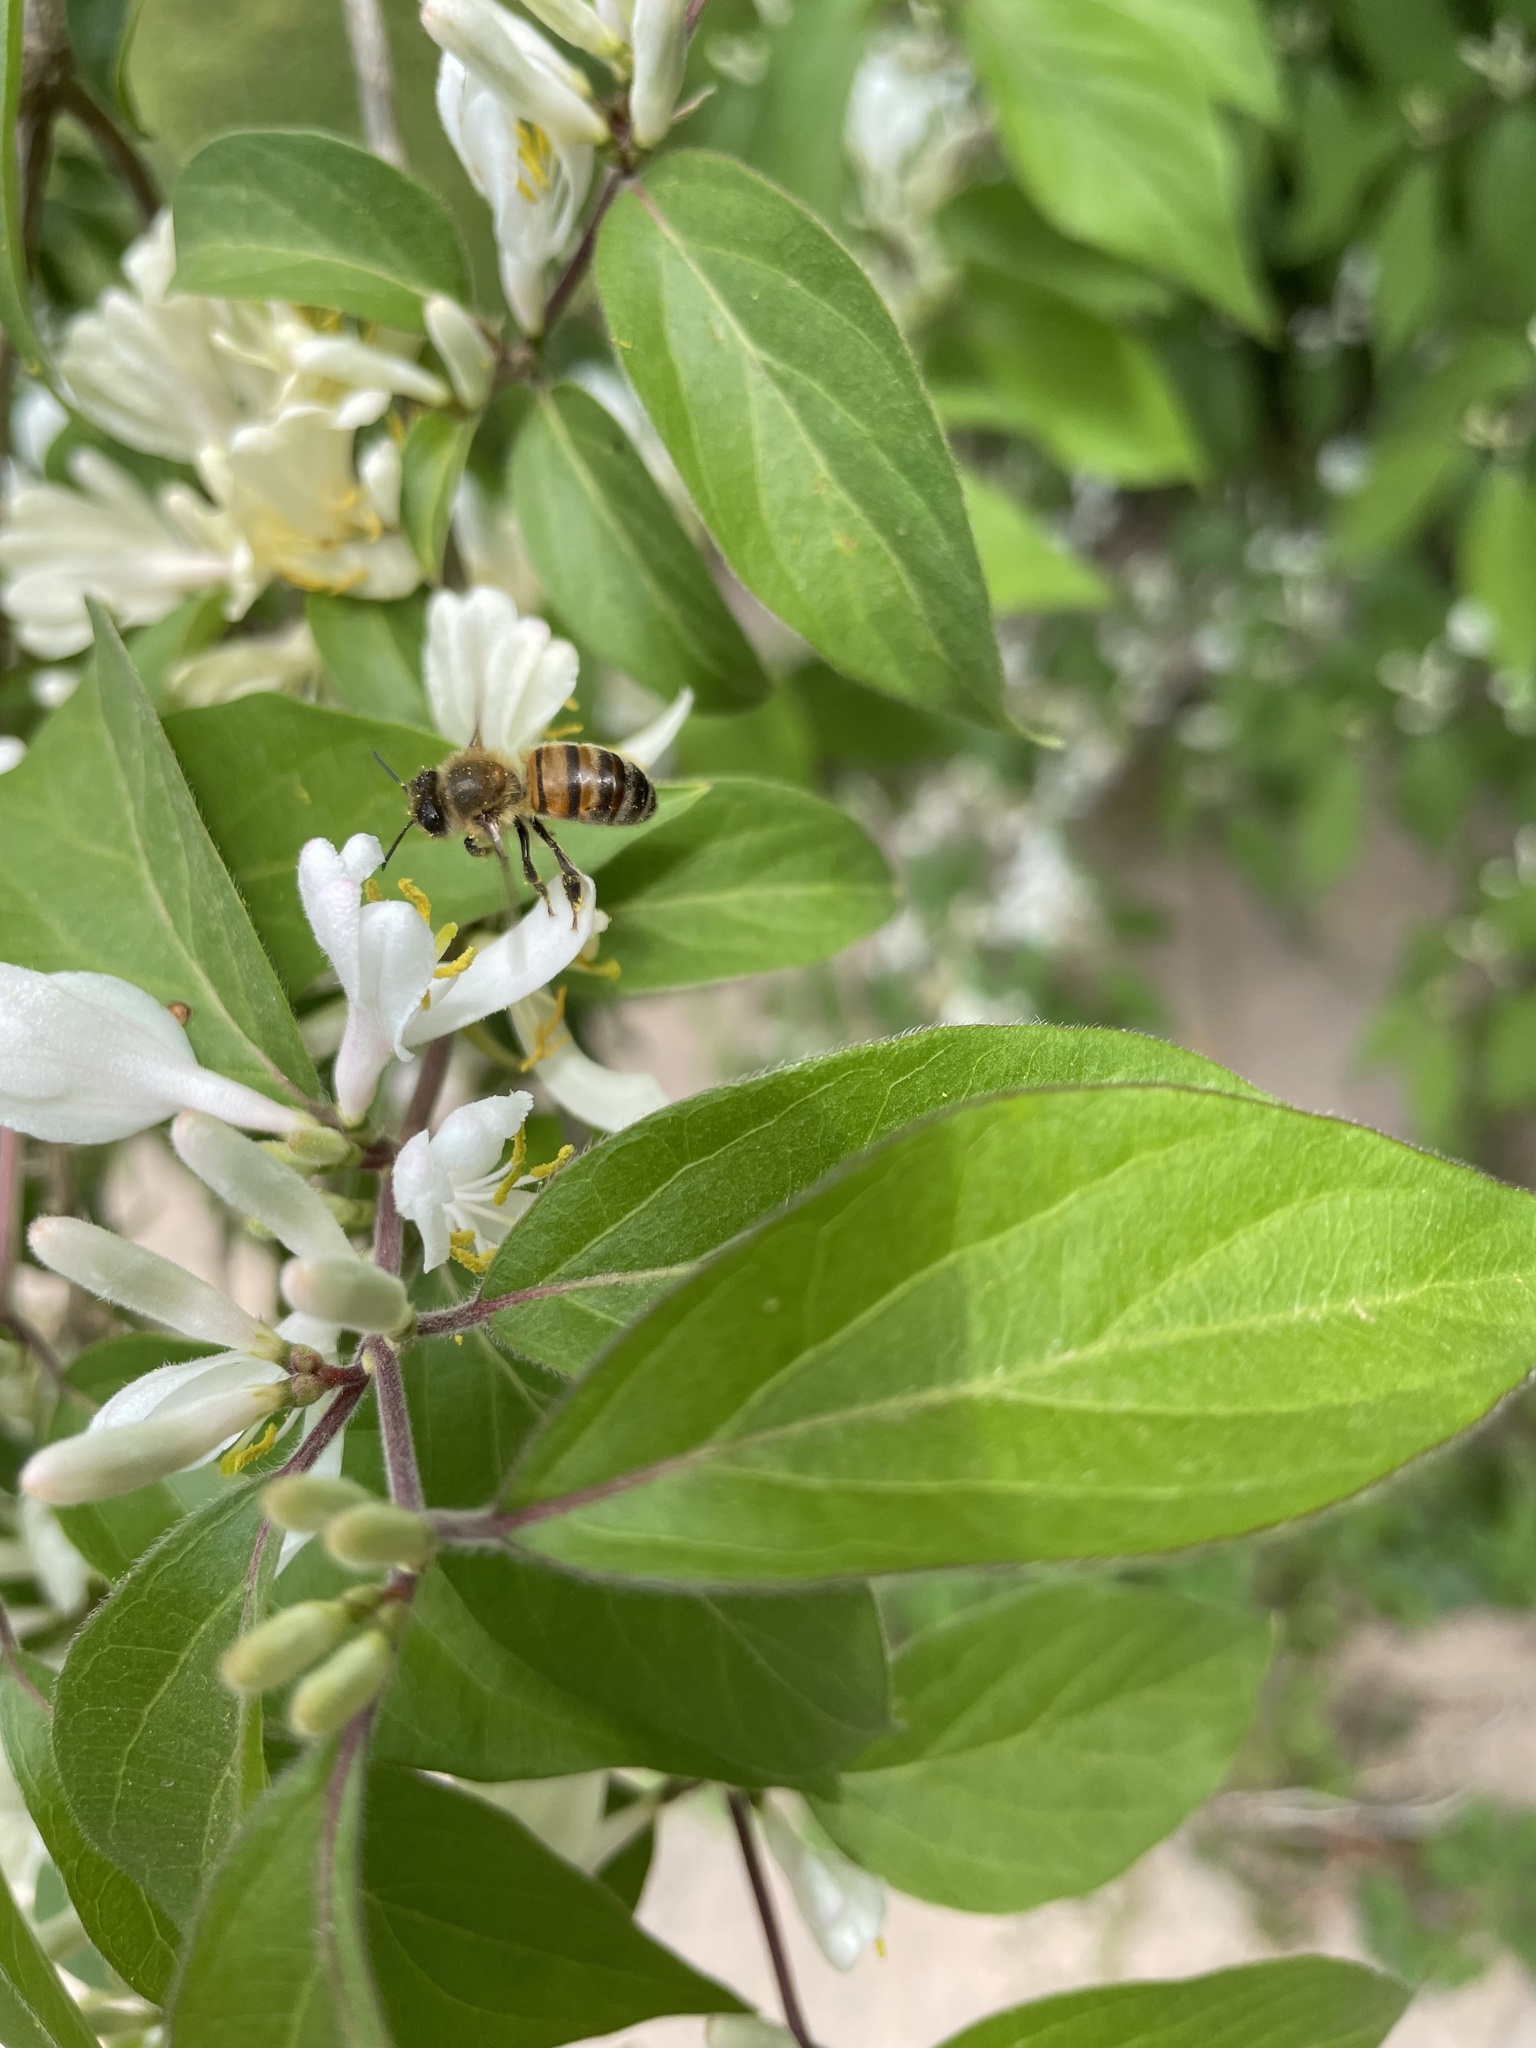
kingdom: Plantae
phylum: Tracheophyta
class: Magnoliopsida
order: Dipsacales
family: Caprifoliaceae
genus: Lonicera
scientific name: Lonicera maackii
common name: Amur honeysuckle
